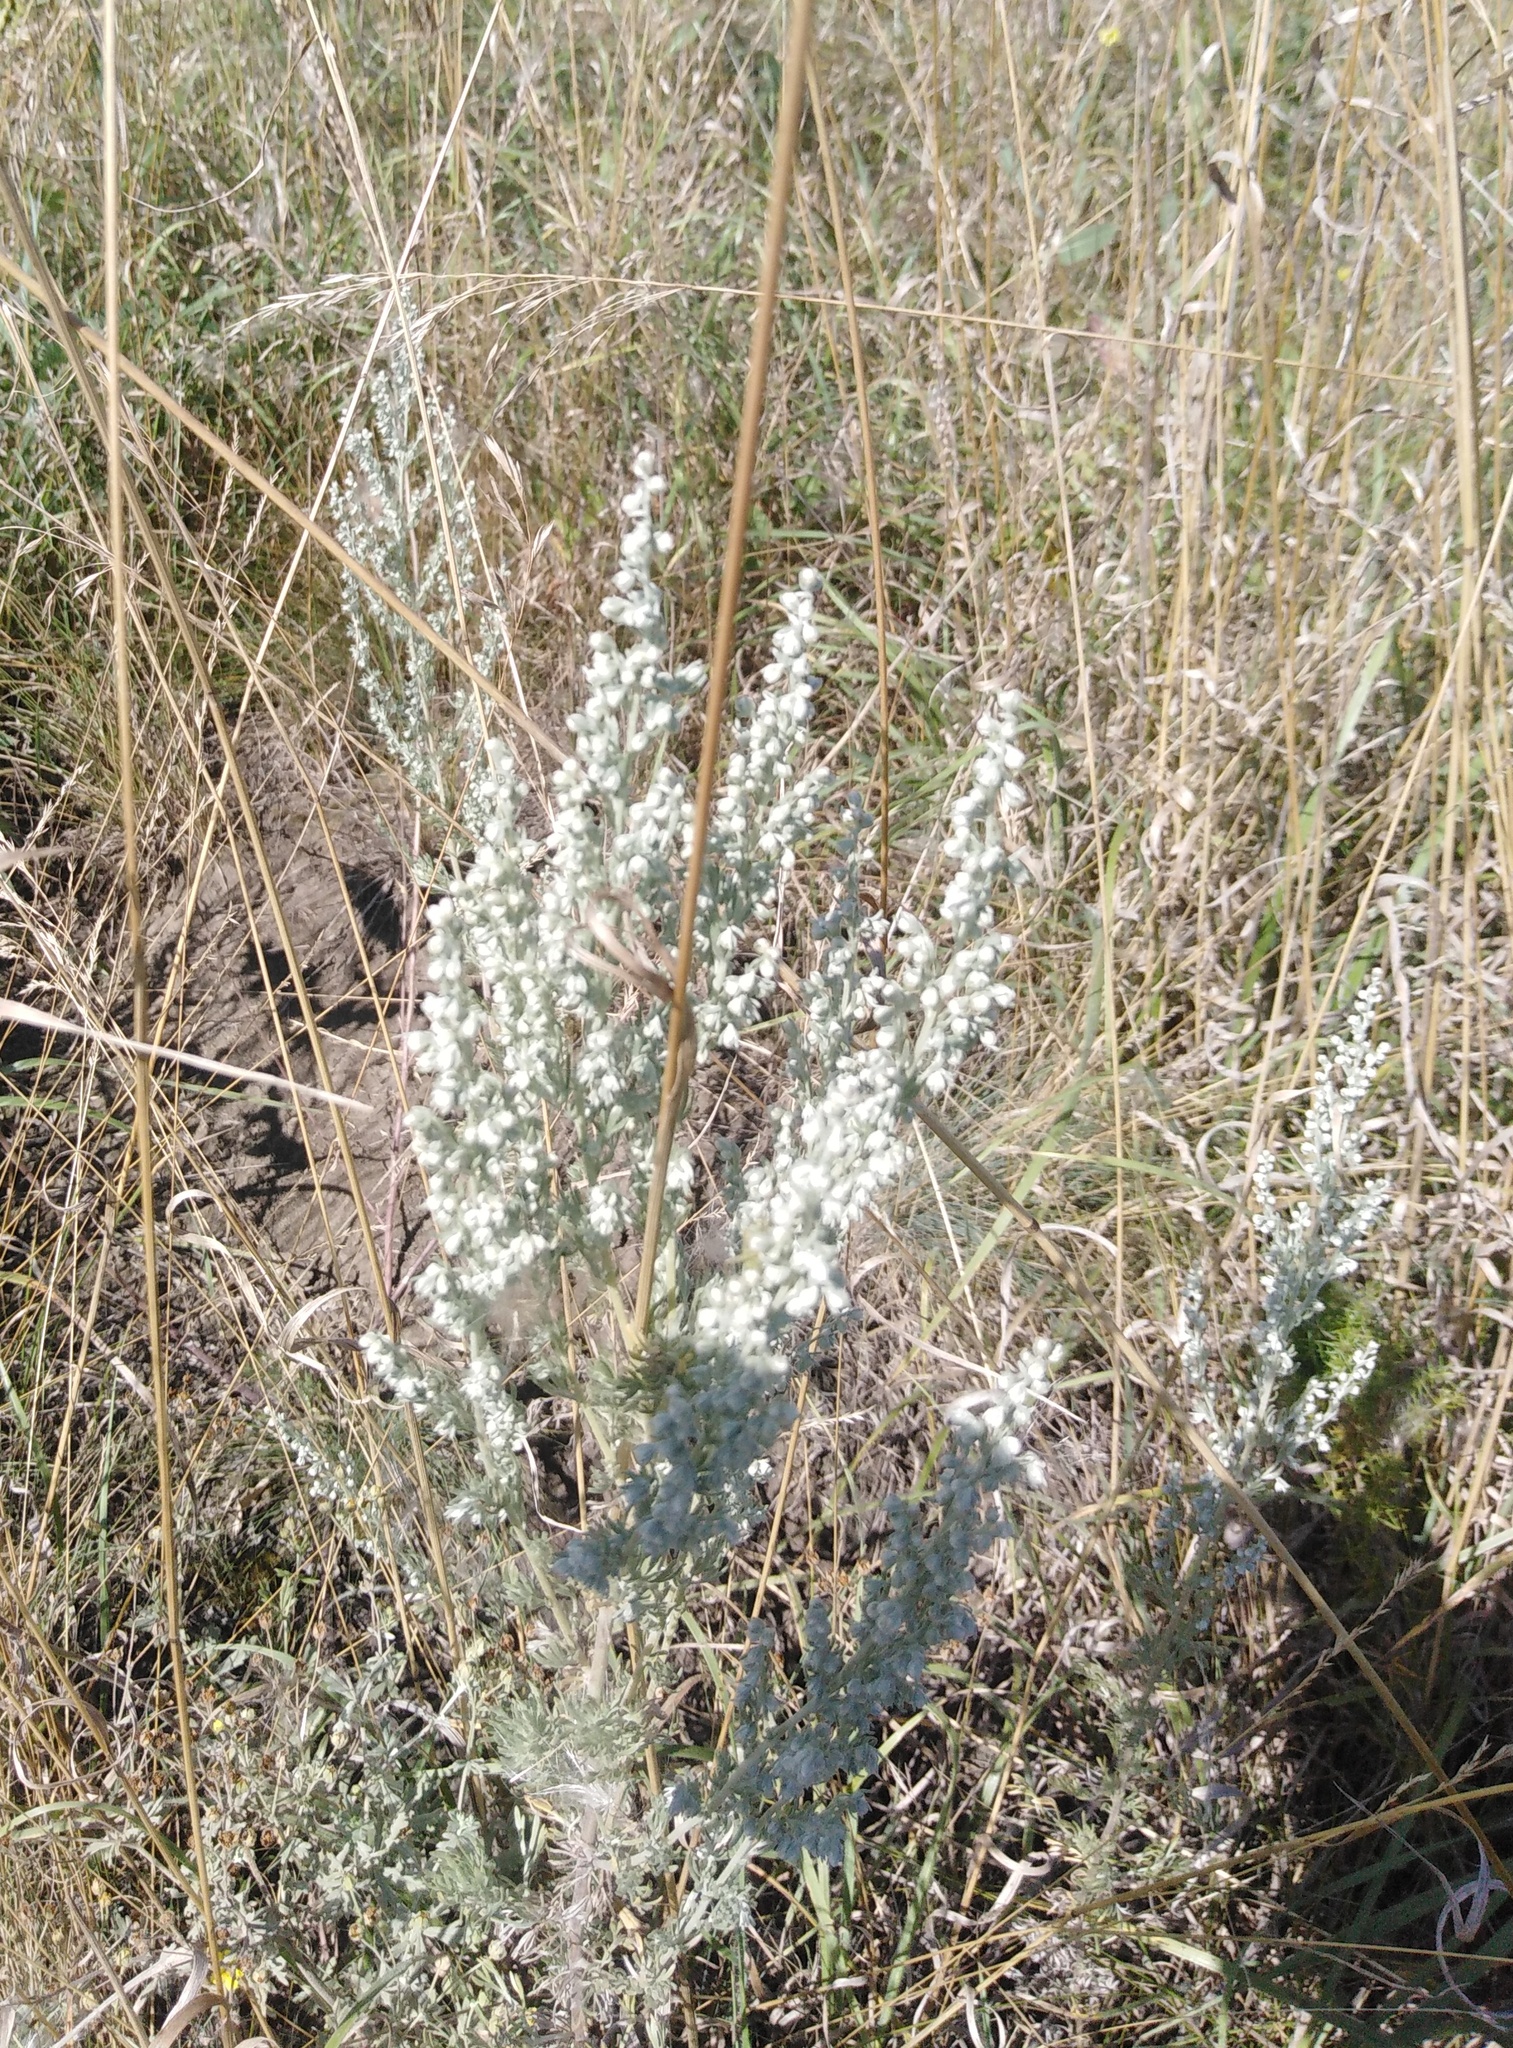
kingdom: Plantae
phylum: Tracheophyta
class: Magnoliopsida
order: Asterales
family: Asteraceae
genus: Artemisia
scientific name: Artemisia austriaca
